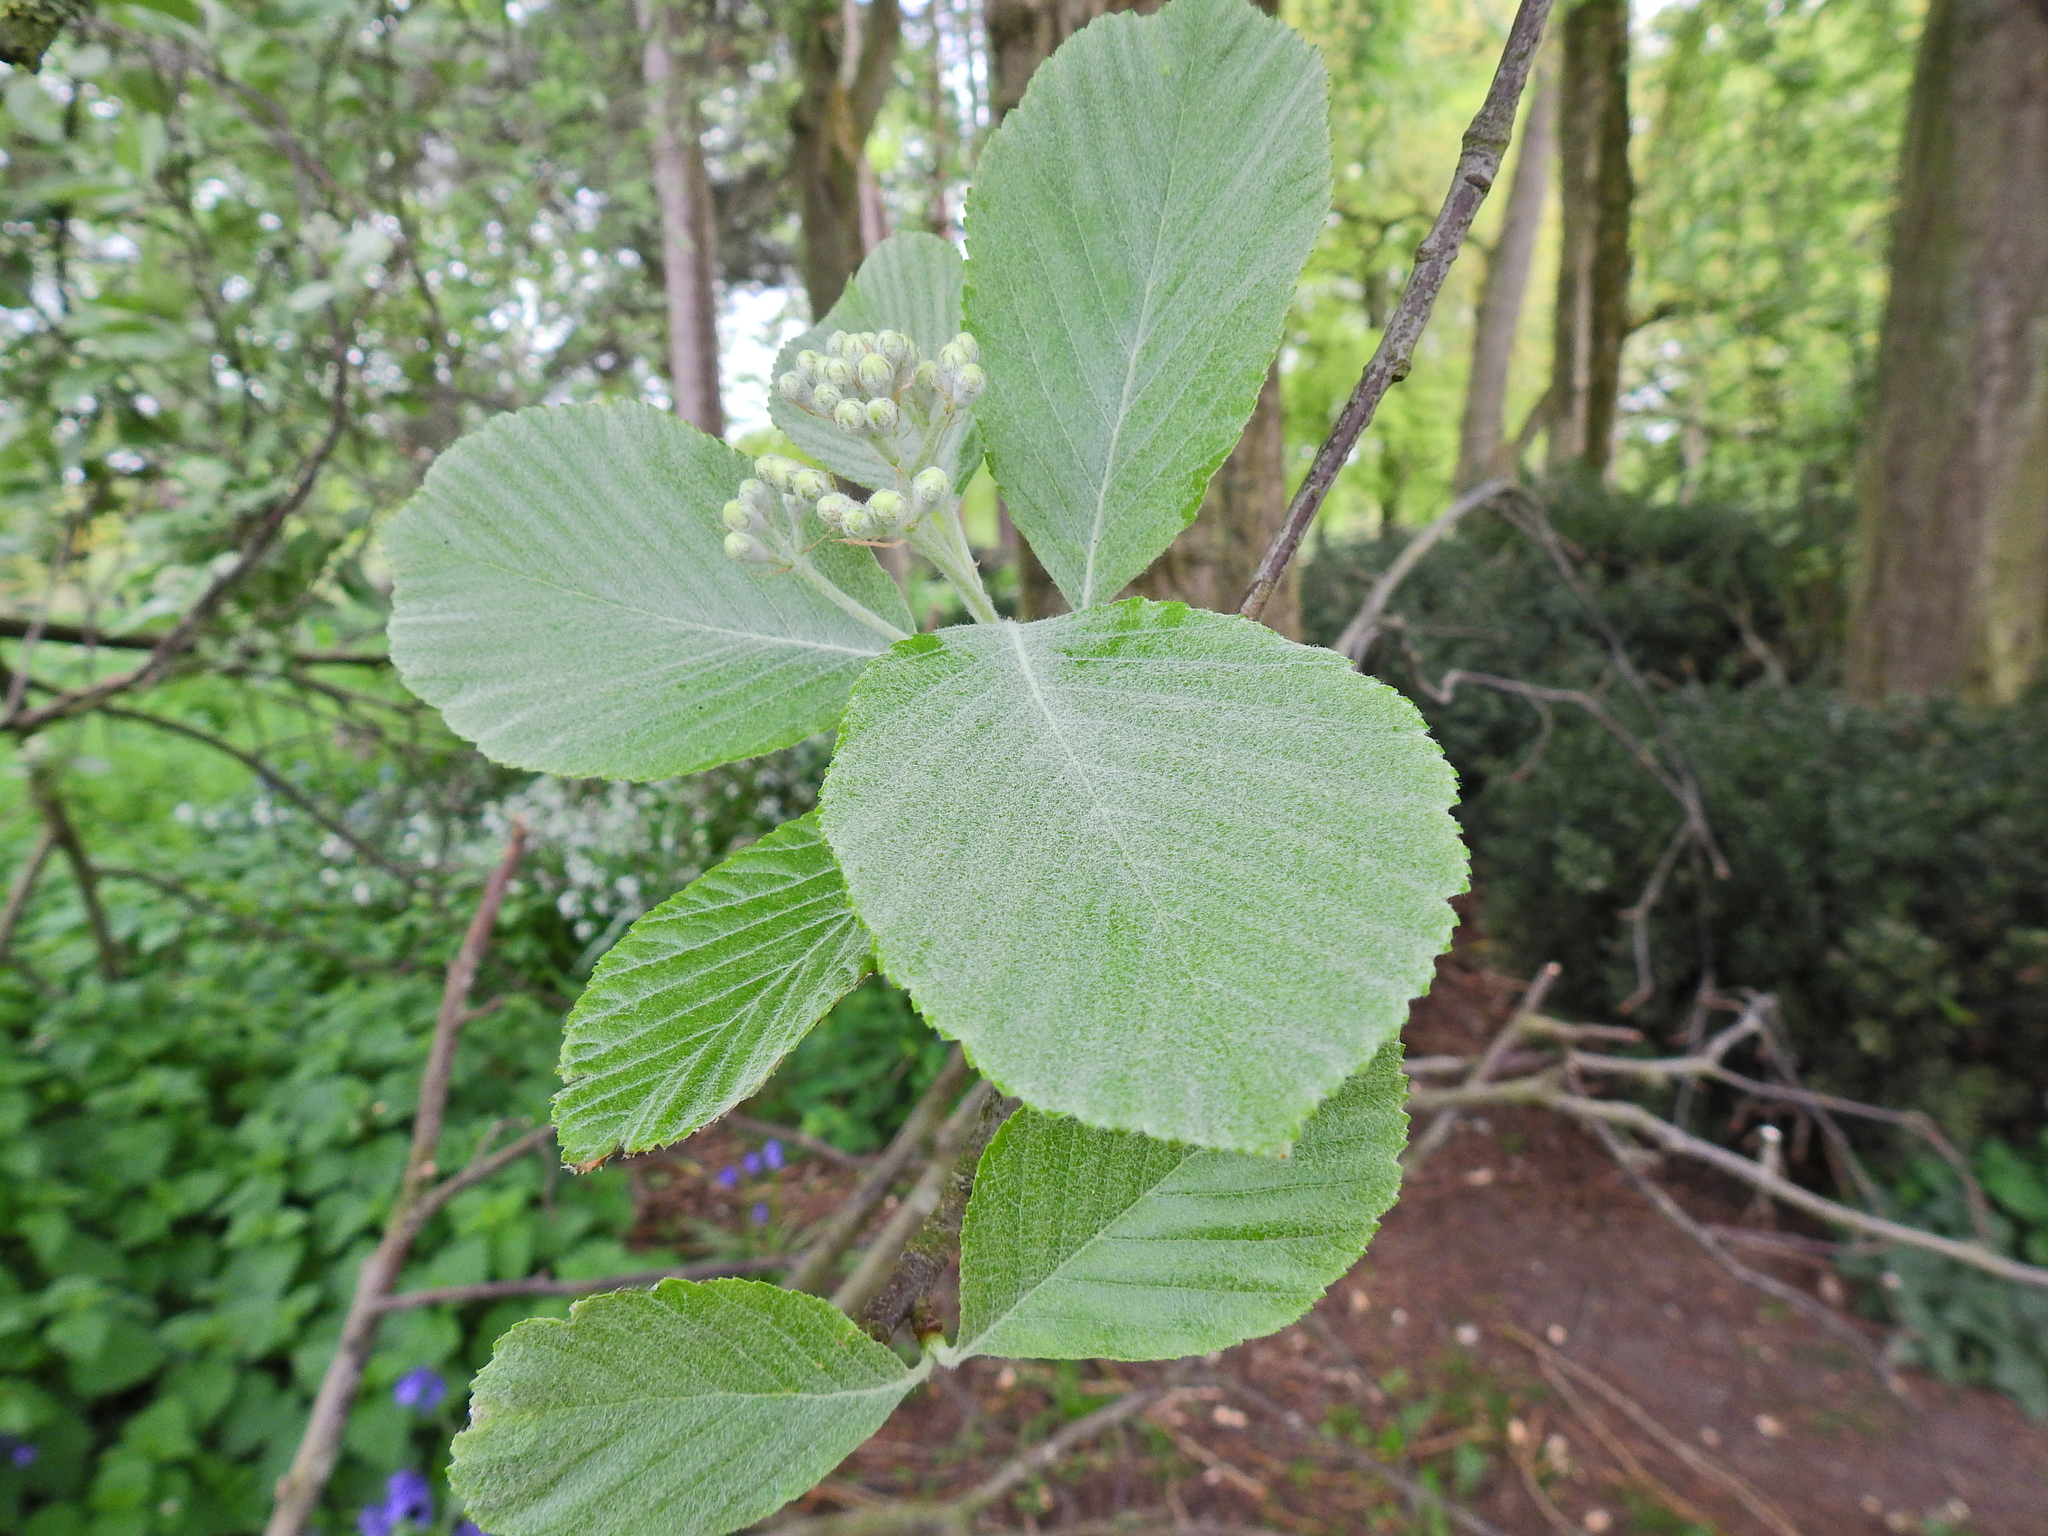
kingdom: Plantae
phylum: Tracheophyta
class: Magnoliopsida
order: Rosales
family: Rosaceae
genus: Aria
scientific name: Aria edulis
